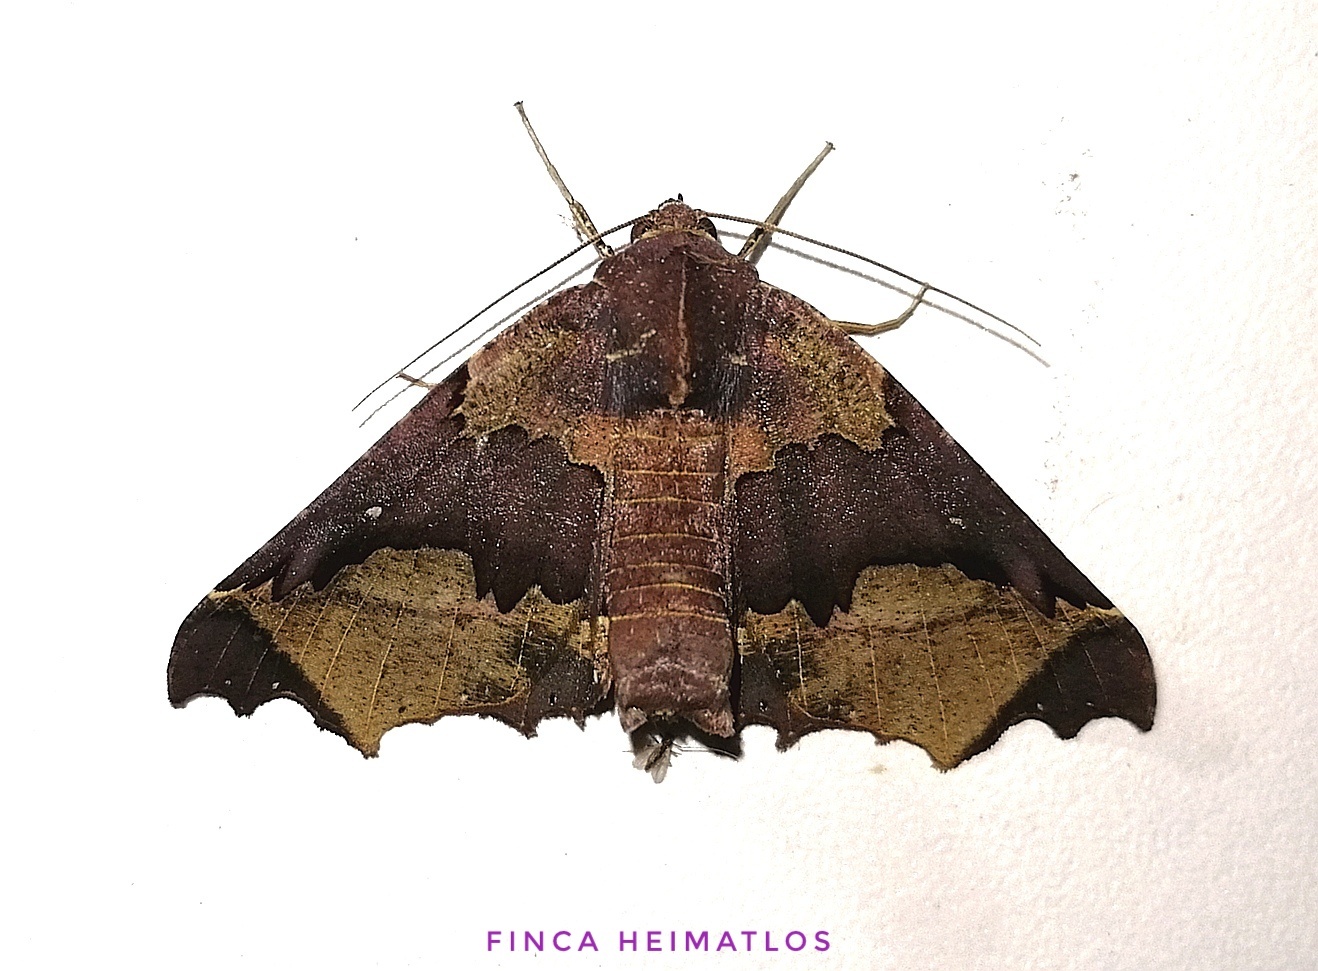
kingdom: Animalia
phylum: Arthropoda
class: Insecta
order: Lepidoptera
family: Geometridae
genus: Pero
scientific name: Pero chapela
